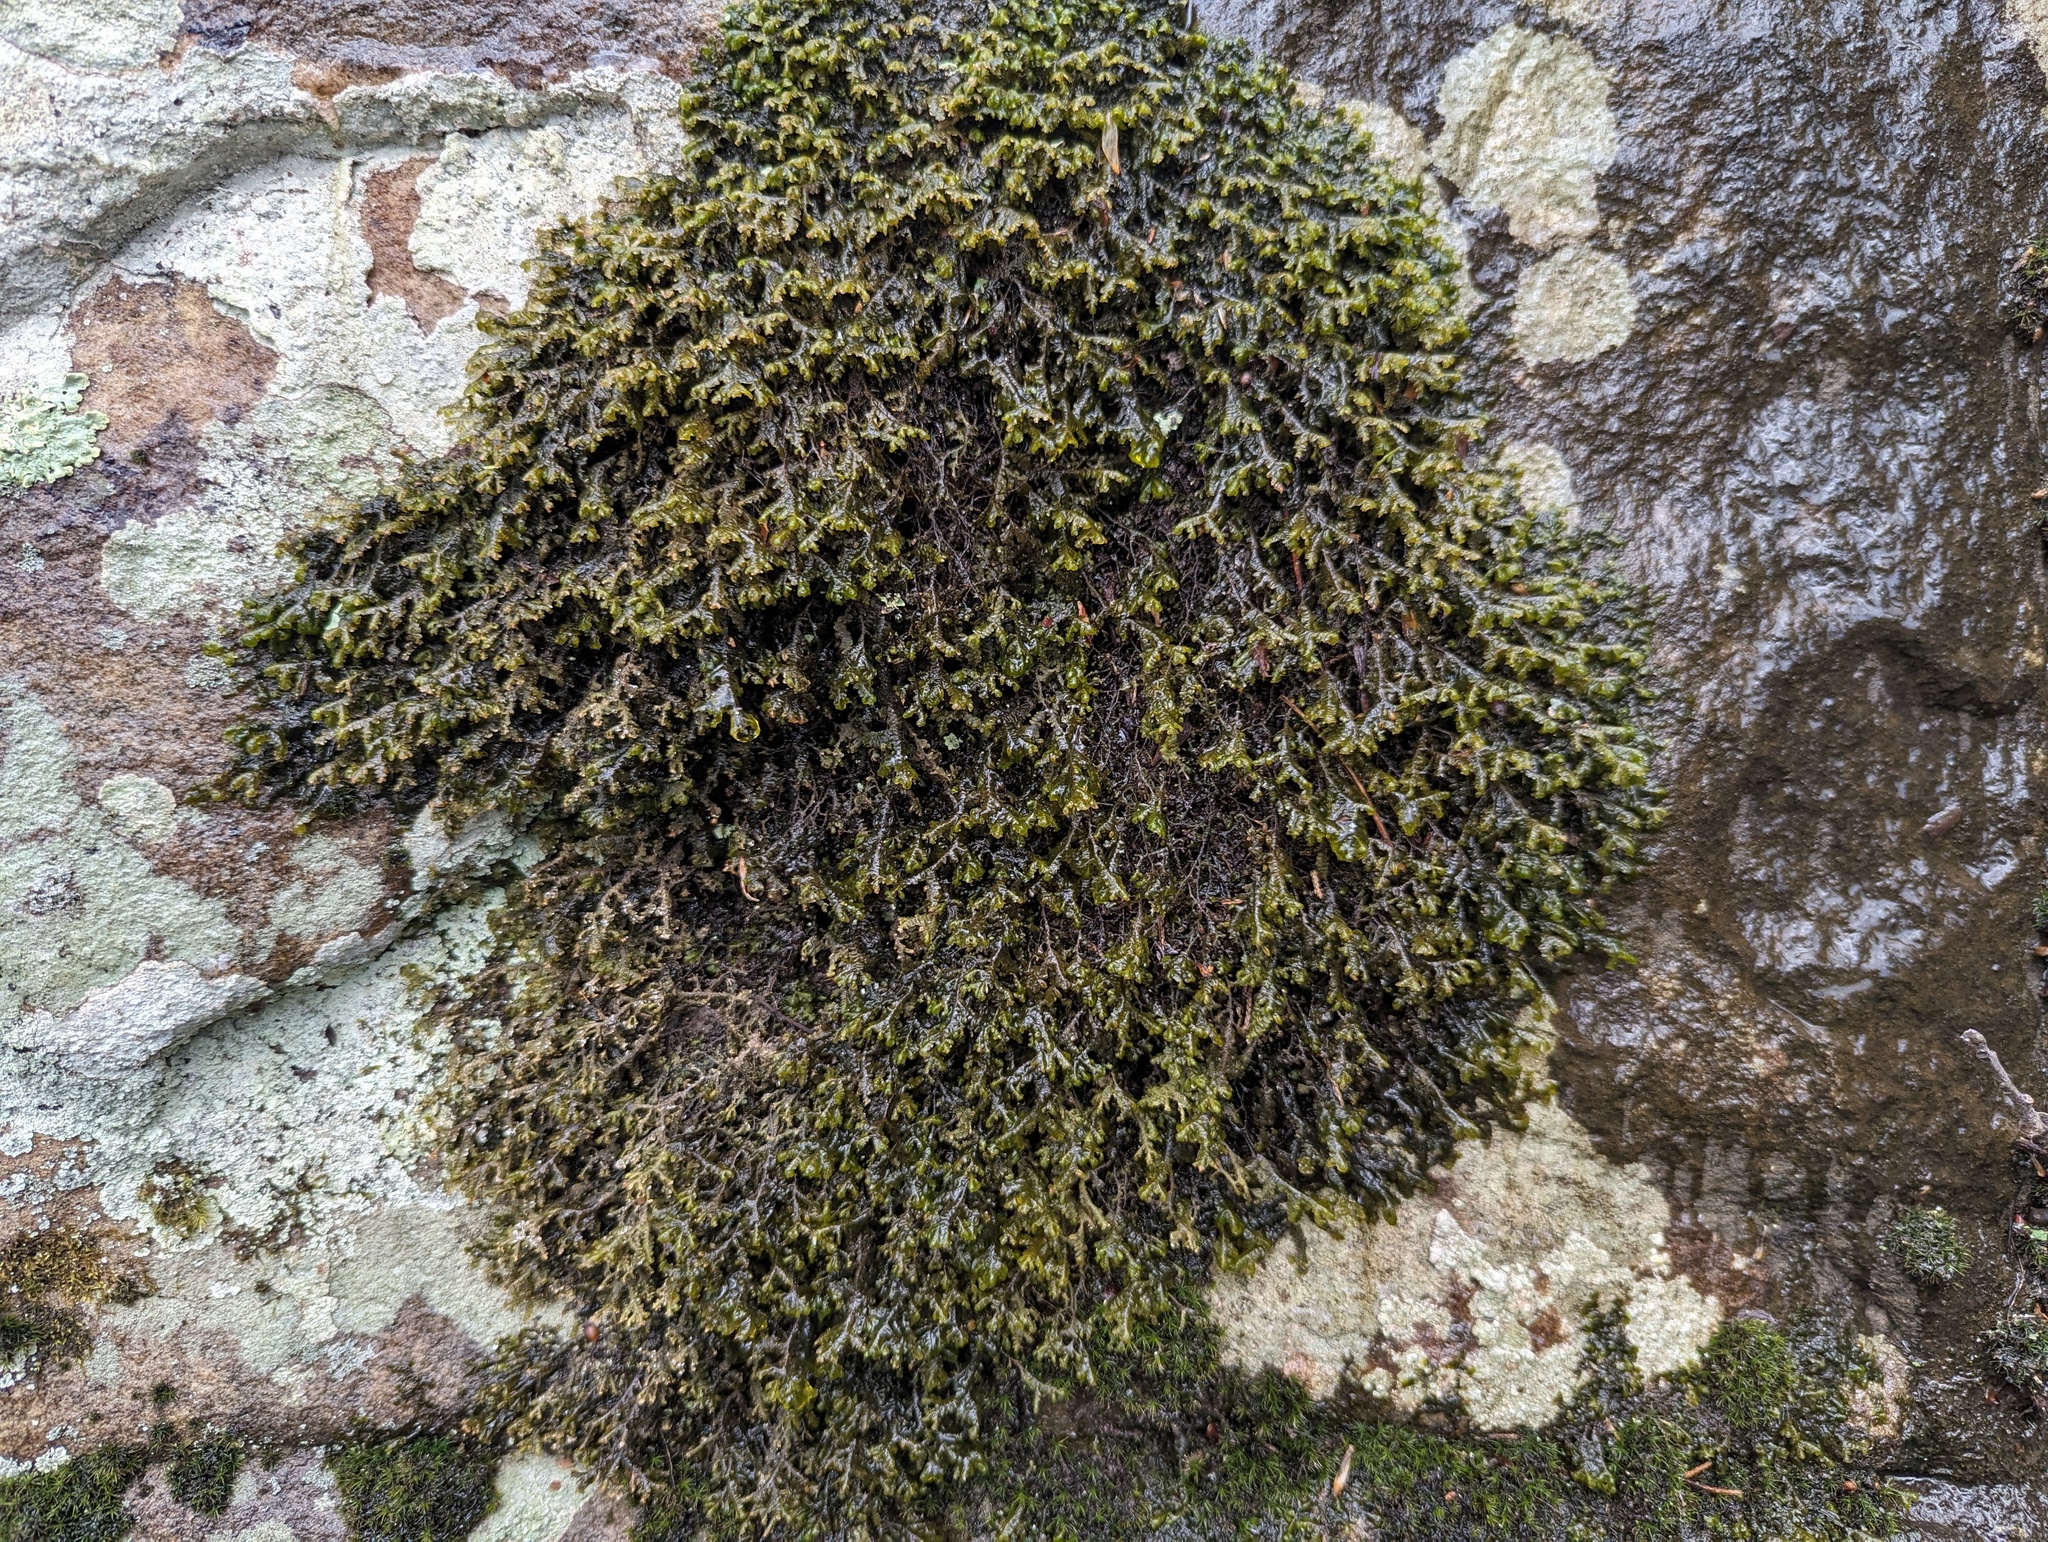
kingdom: Plantae
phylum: Marchantiophyta
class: Jungermanniopsida
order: Porellales
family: Porellaceae
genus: Porella
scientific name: Porella pinnata
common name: Pinnate scalewort
